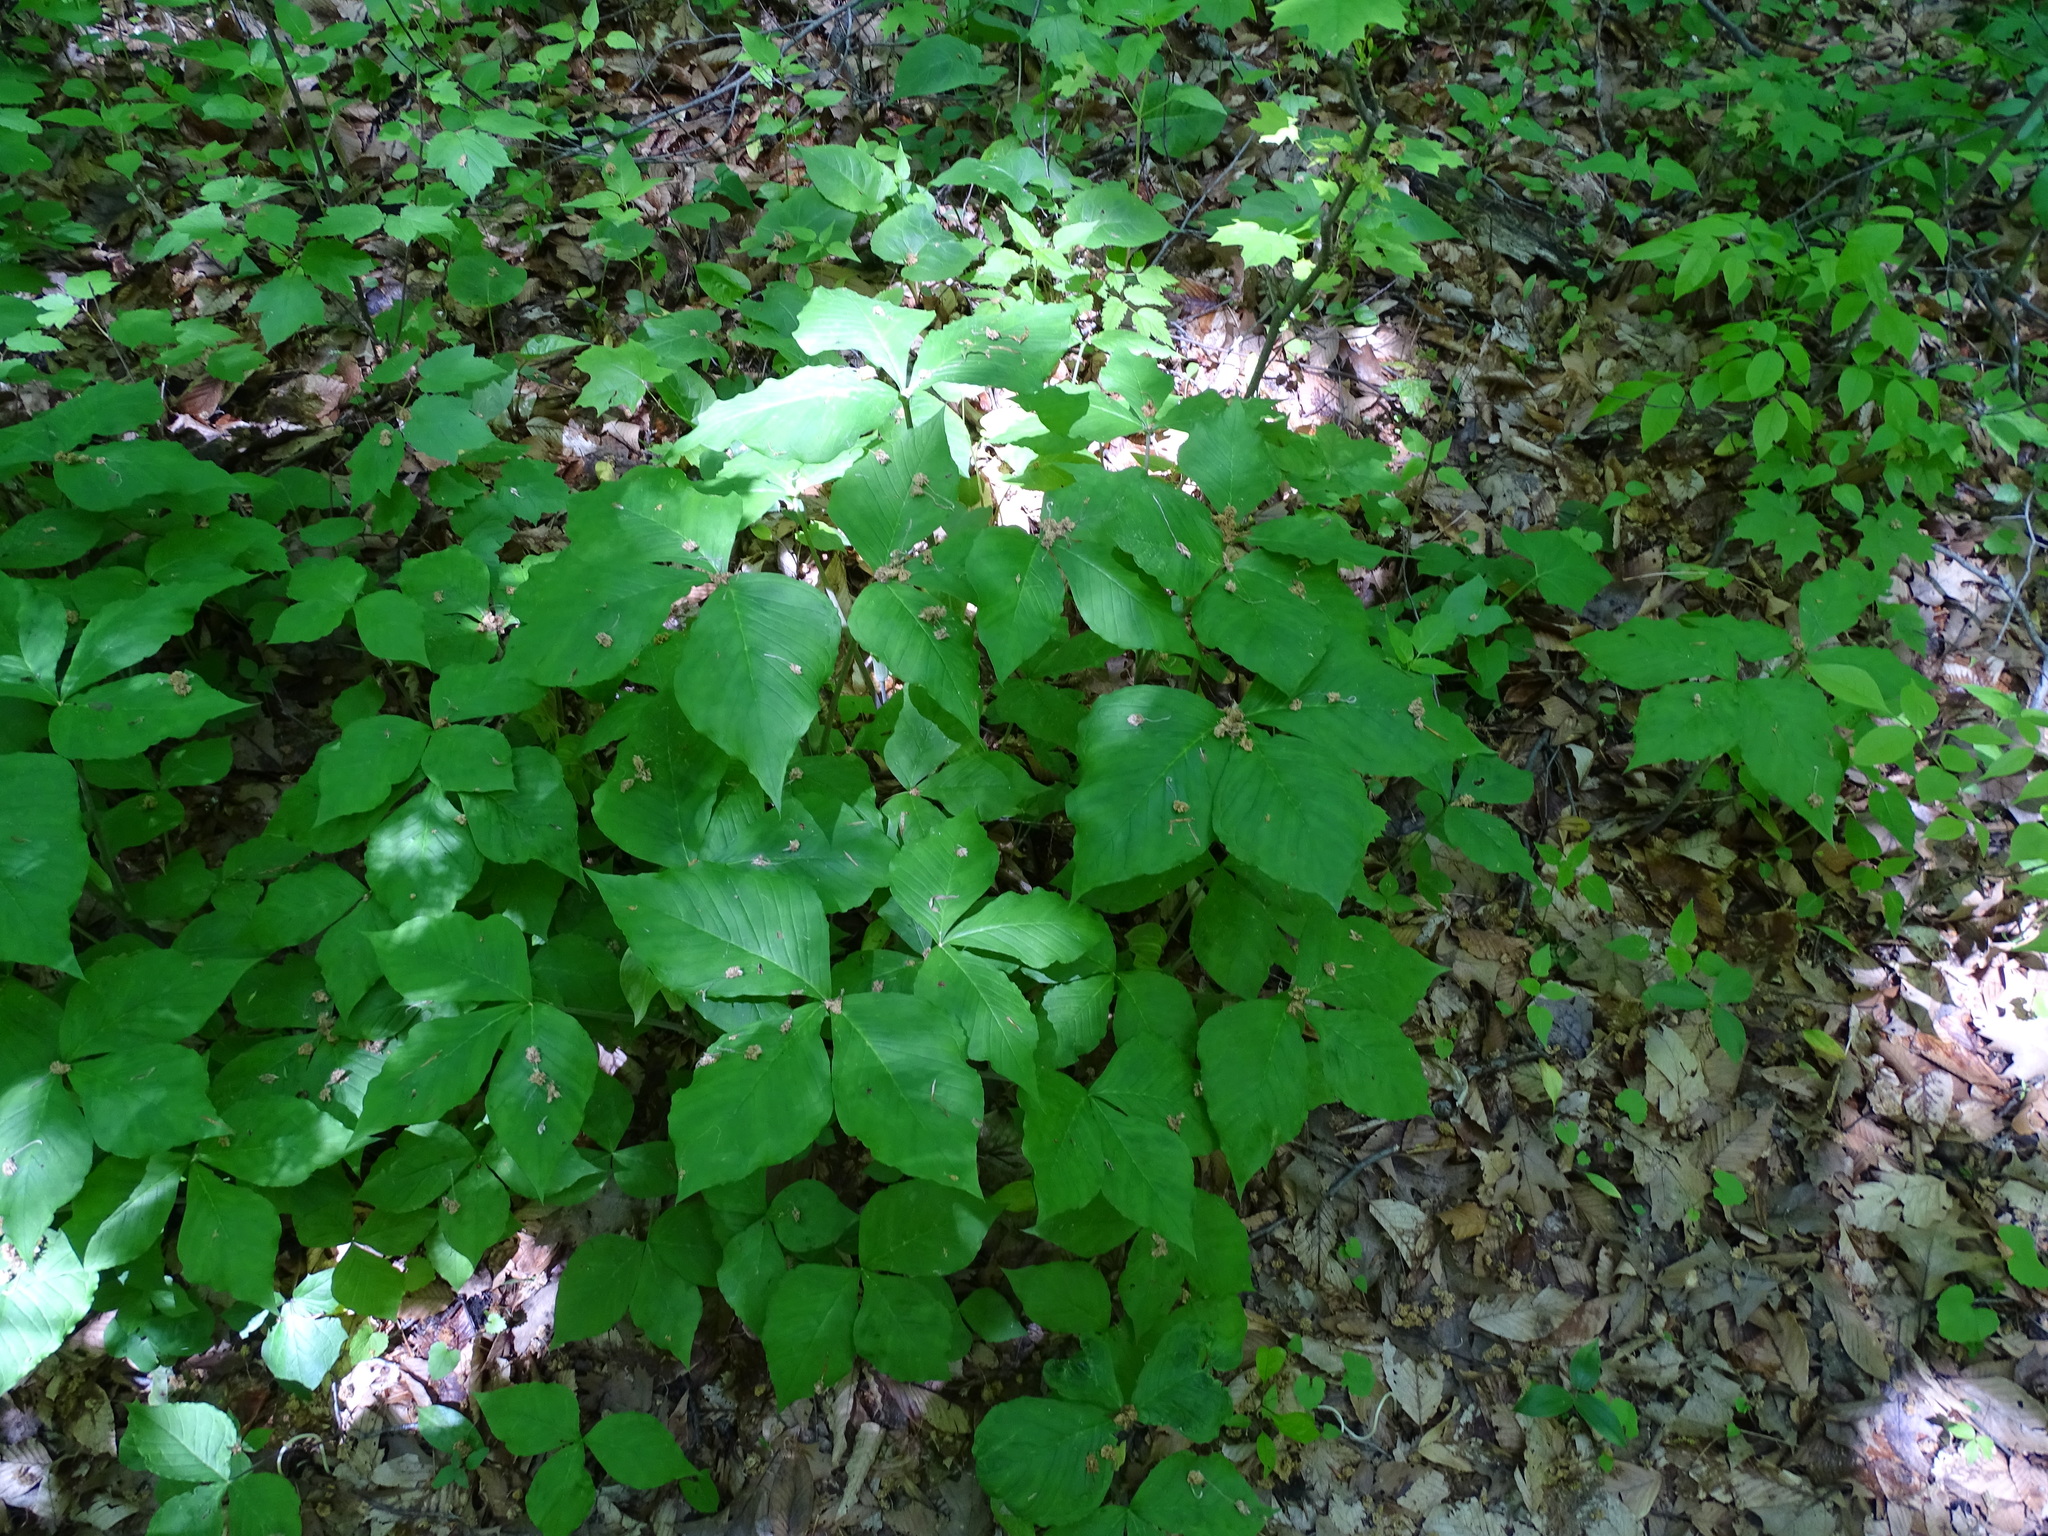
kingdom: Plantae
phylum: Tracheophyta
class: Liliopsida
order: Alismatales
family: Araceae
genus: Arisaema
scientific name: Arisaema triphyllum
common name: Jack-in-the-pulpit
